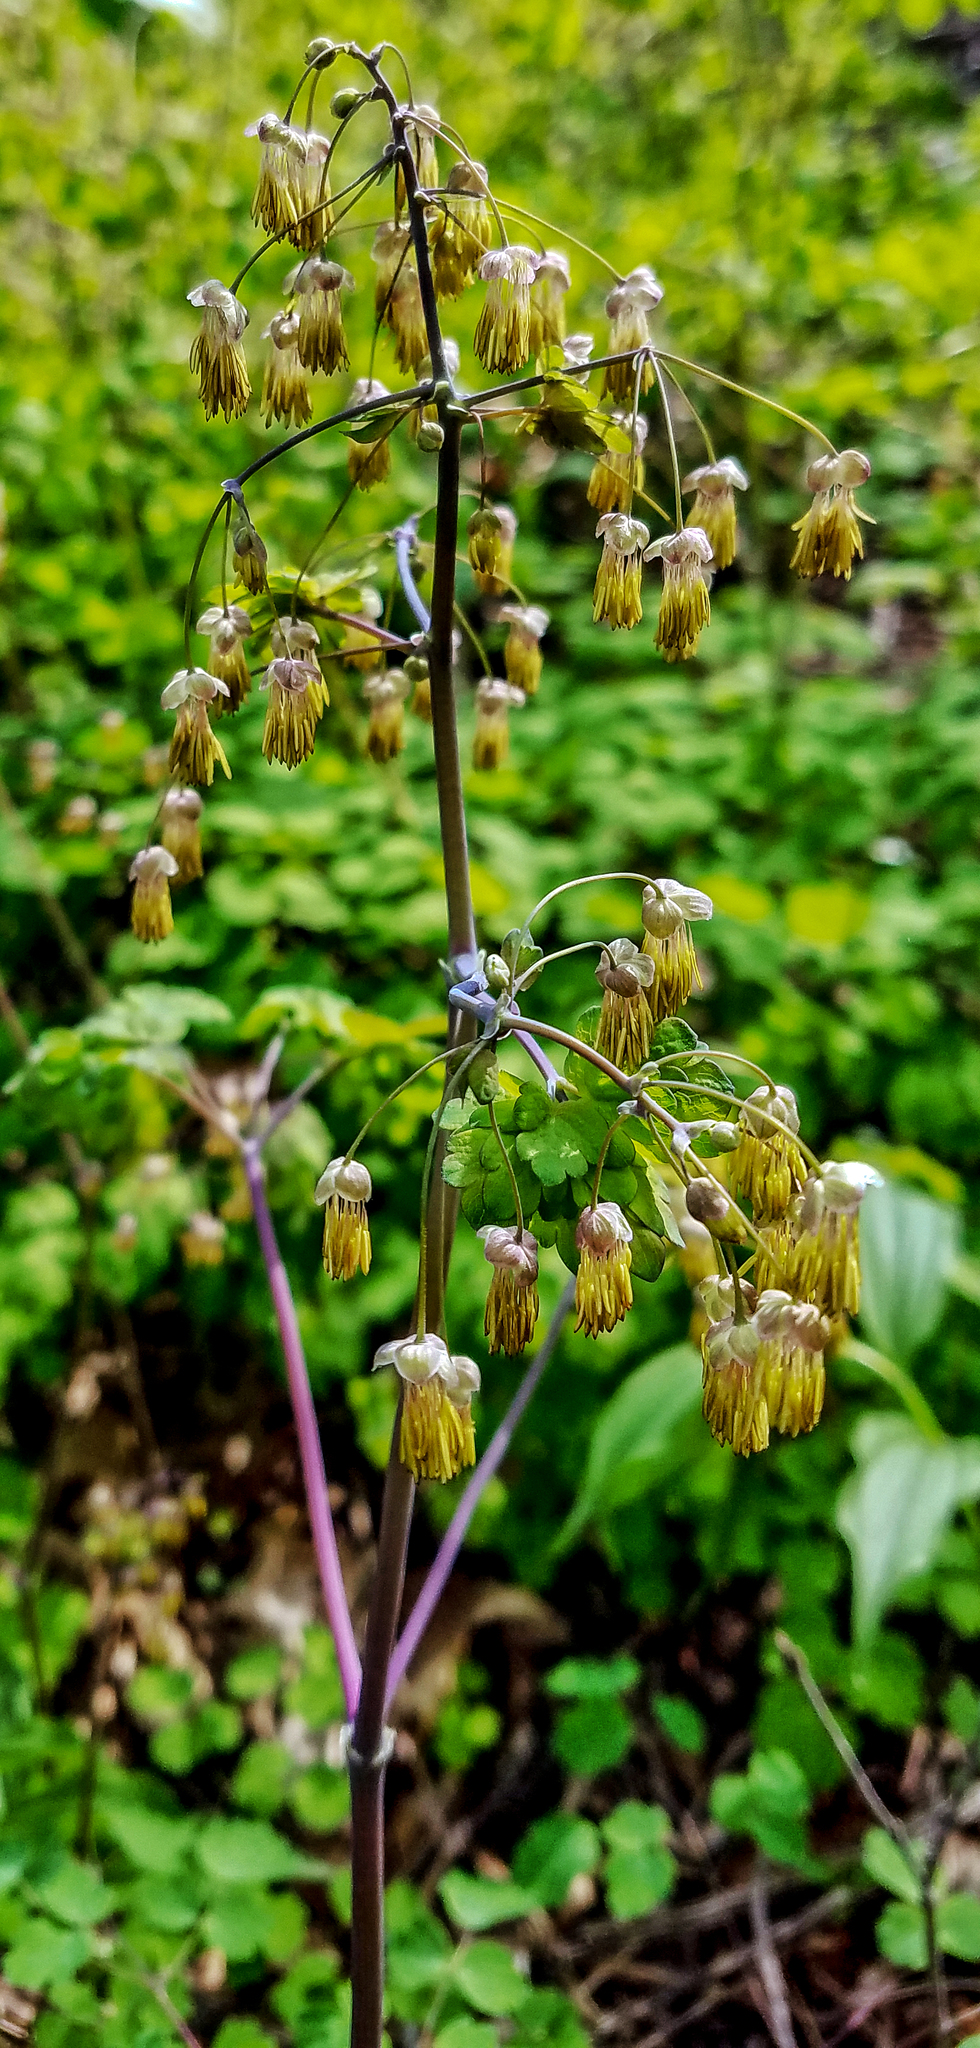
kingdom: Plantae
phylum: Tracheophyta
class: Magnoliopsida
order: Ranunculales
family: Ranunculaceae
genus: Thalictrum
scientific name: Thalictrum dioicum
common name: Early meadow-rue
